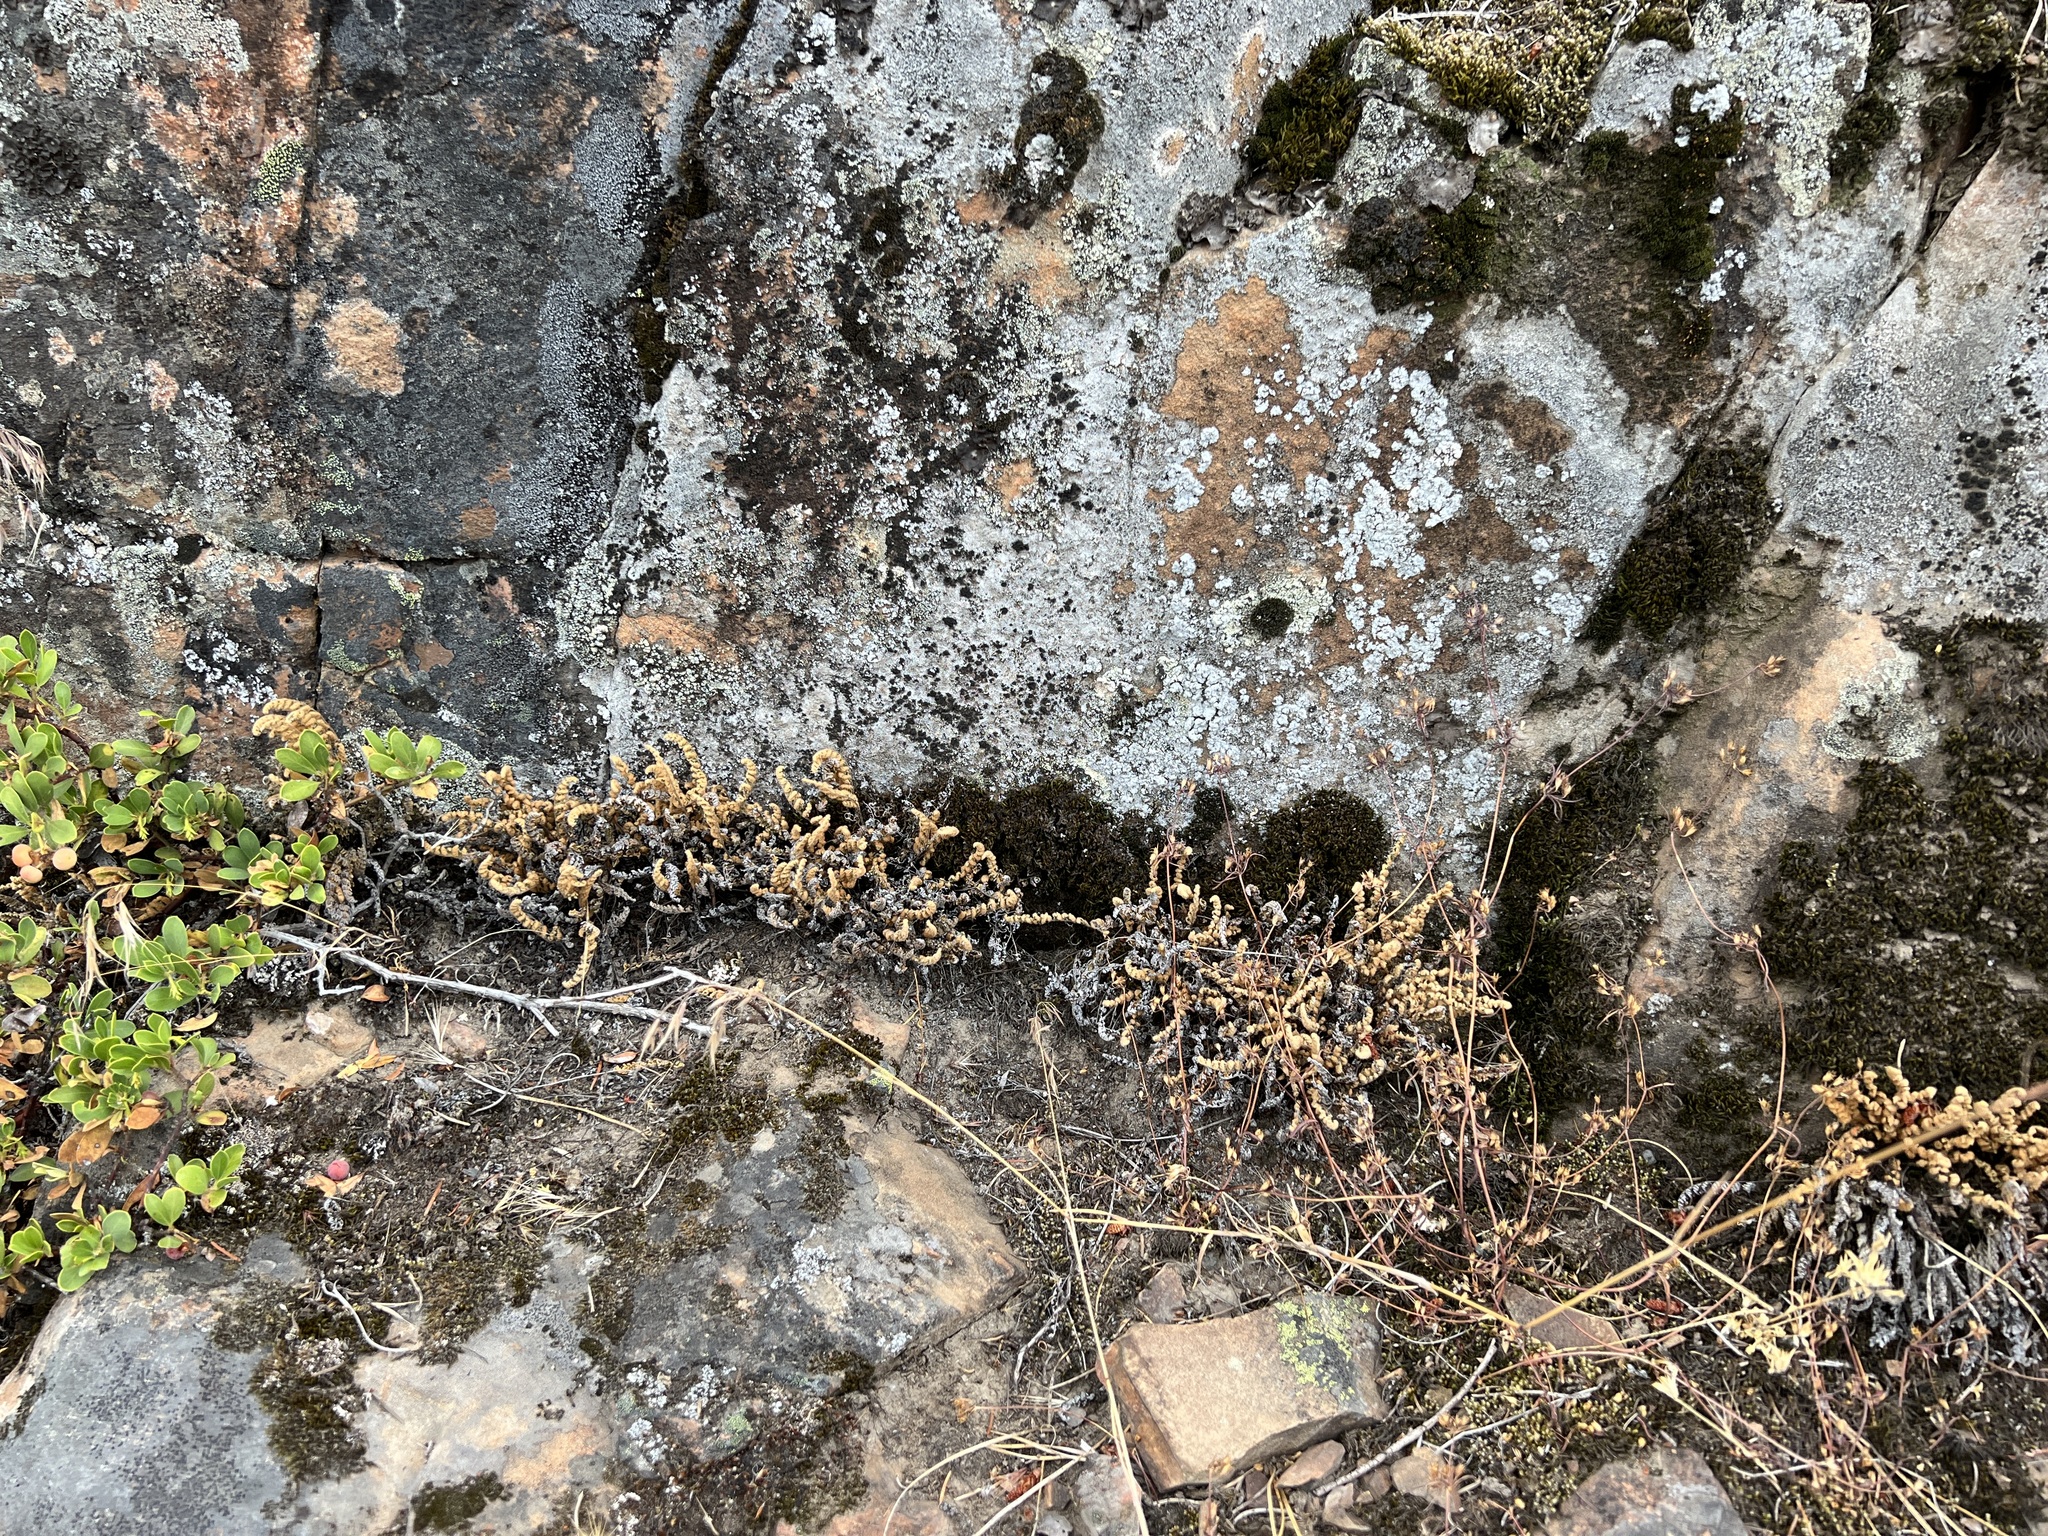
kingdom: Plantae
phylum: Tracheophyta
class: Polypodiopsida
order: Polypodiales
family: Pteridaceae
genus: Myriopteris
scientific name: Myriopteris gracillima
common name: Lace fern
